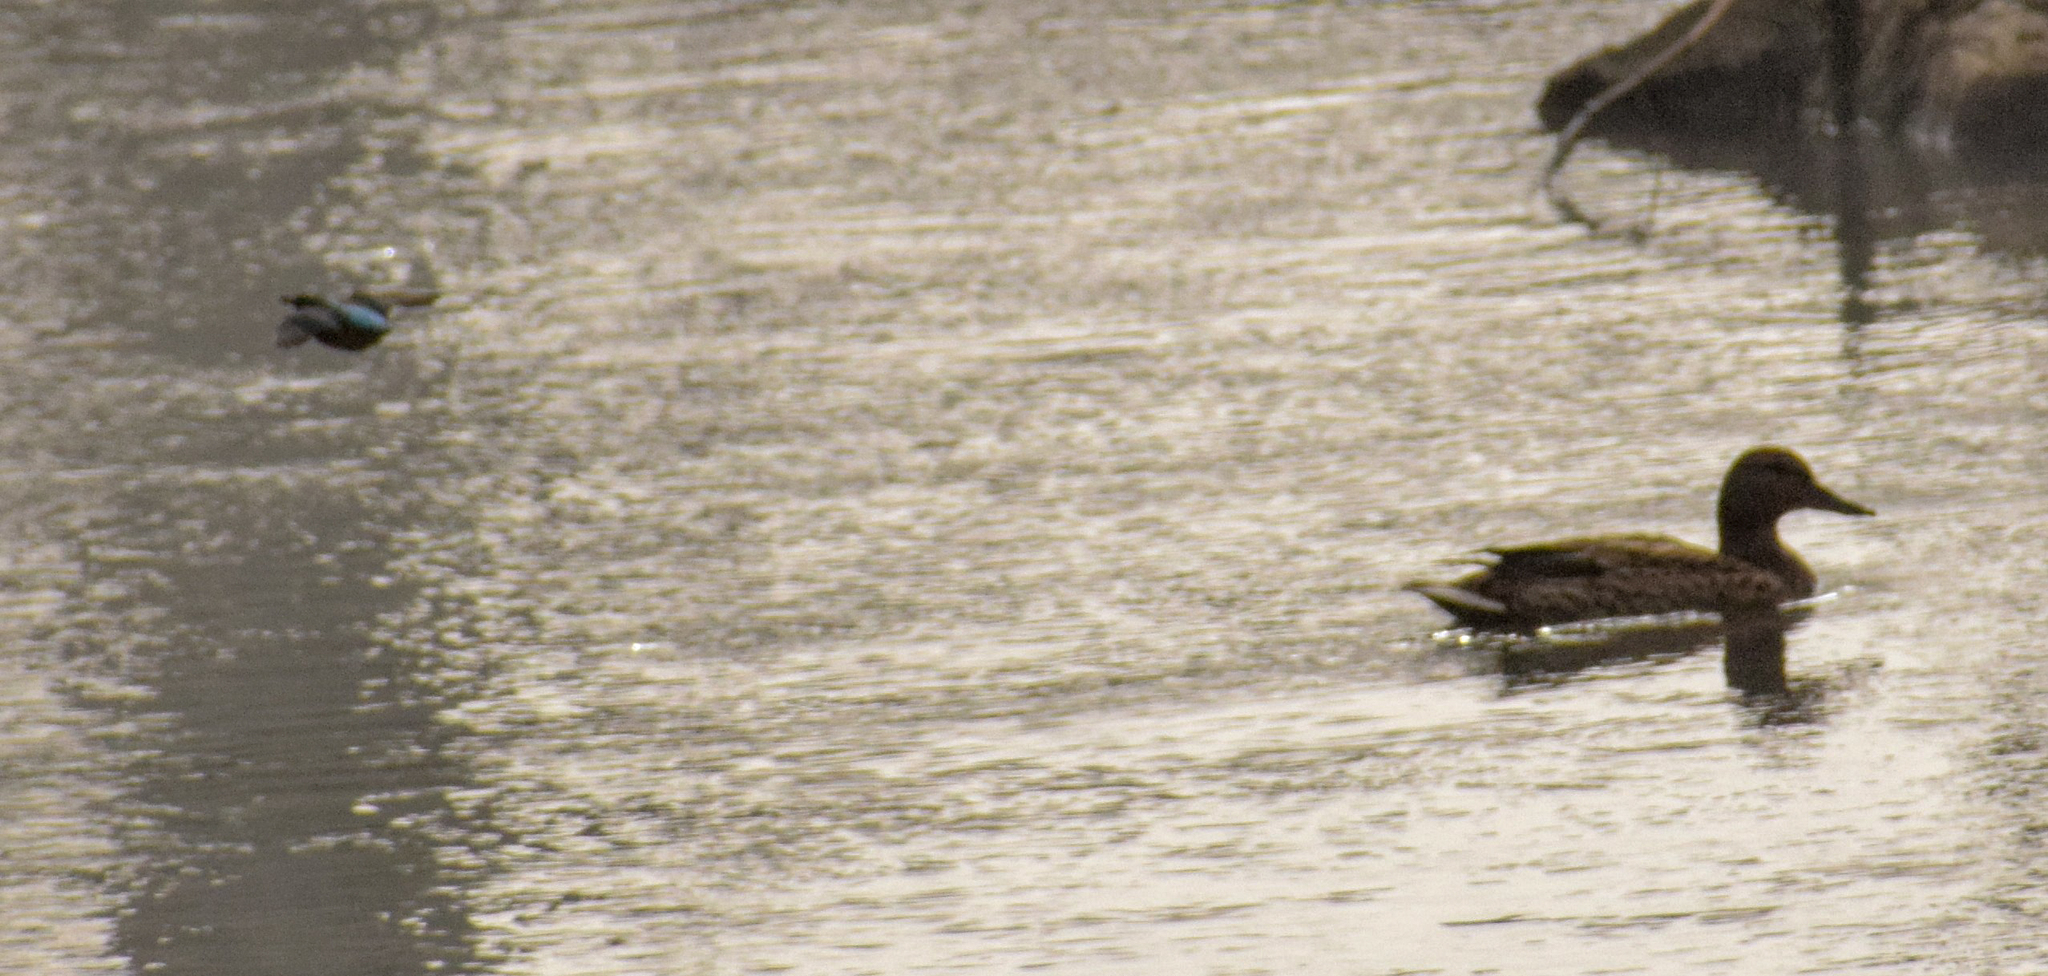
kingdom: Animalia
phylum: Chordata
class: Aves
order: Coraciiformes
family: Alcedinidae
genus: Alcedo
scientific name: Alcedo atthis
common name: Common kingfisher
